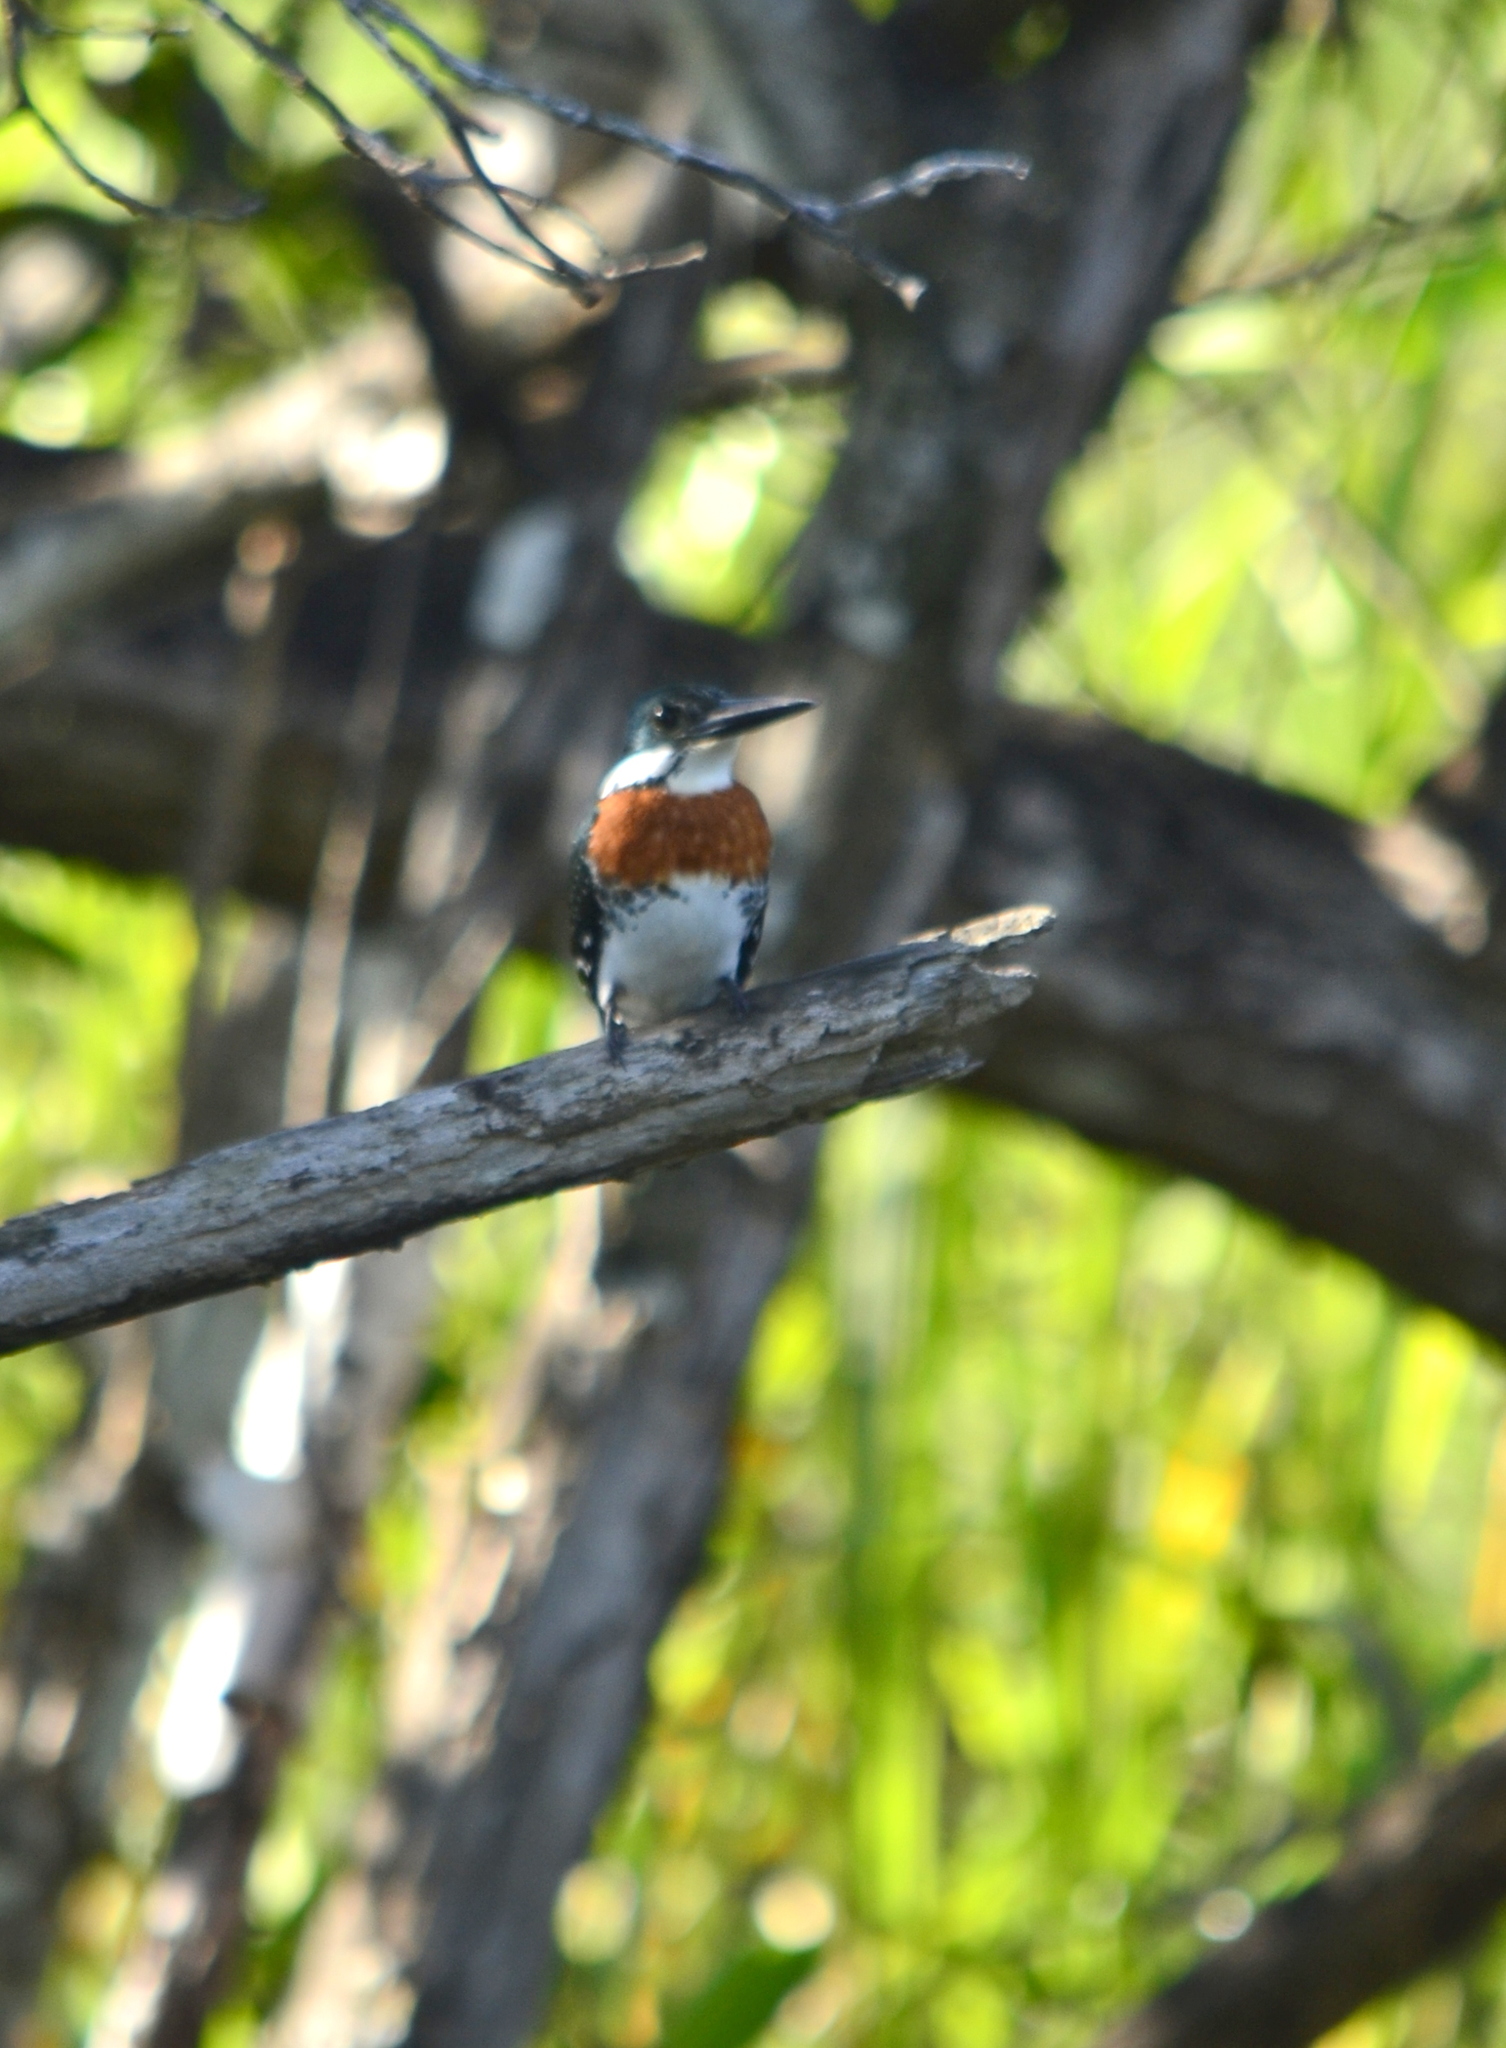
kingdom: Animalia
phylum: Chordata
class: Aves
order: Coraciiformes
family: Alcedinidae
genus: Chloroceryle
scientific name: Chloroceryle americana
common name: Green kingfisher
